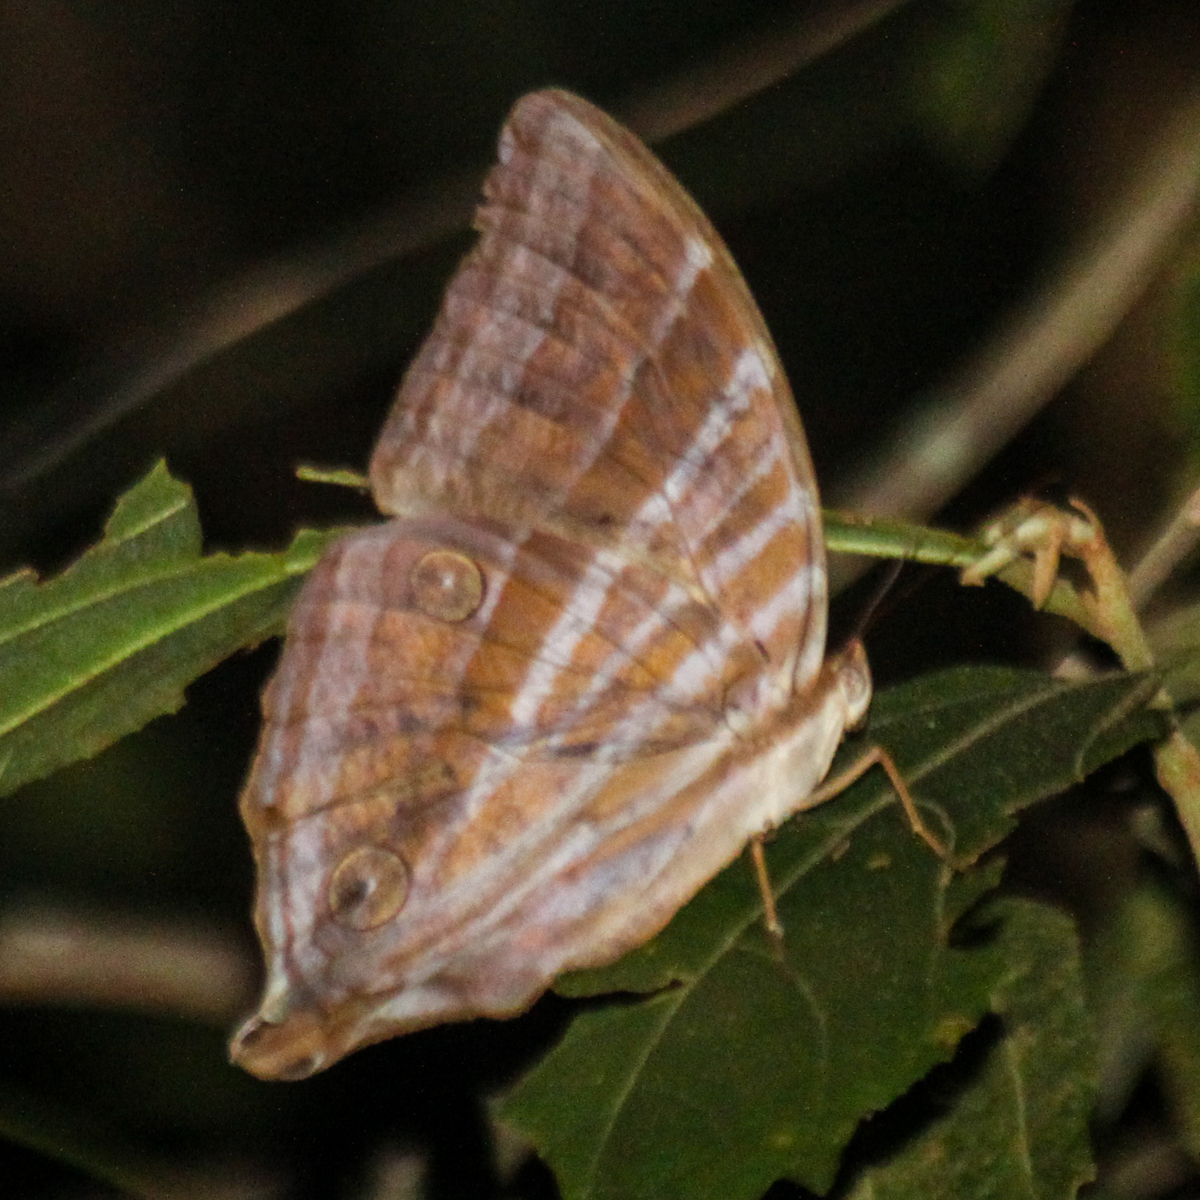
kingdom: Animalia
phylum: Arthropoda
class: Insecta
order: Lepidoptera
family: Nymphalidae
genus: Amathusia
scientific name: Amathusia phidippus
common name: Palm king
